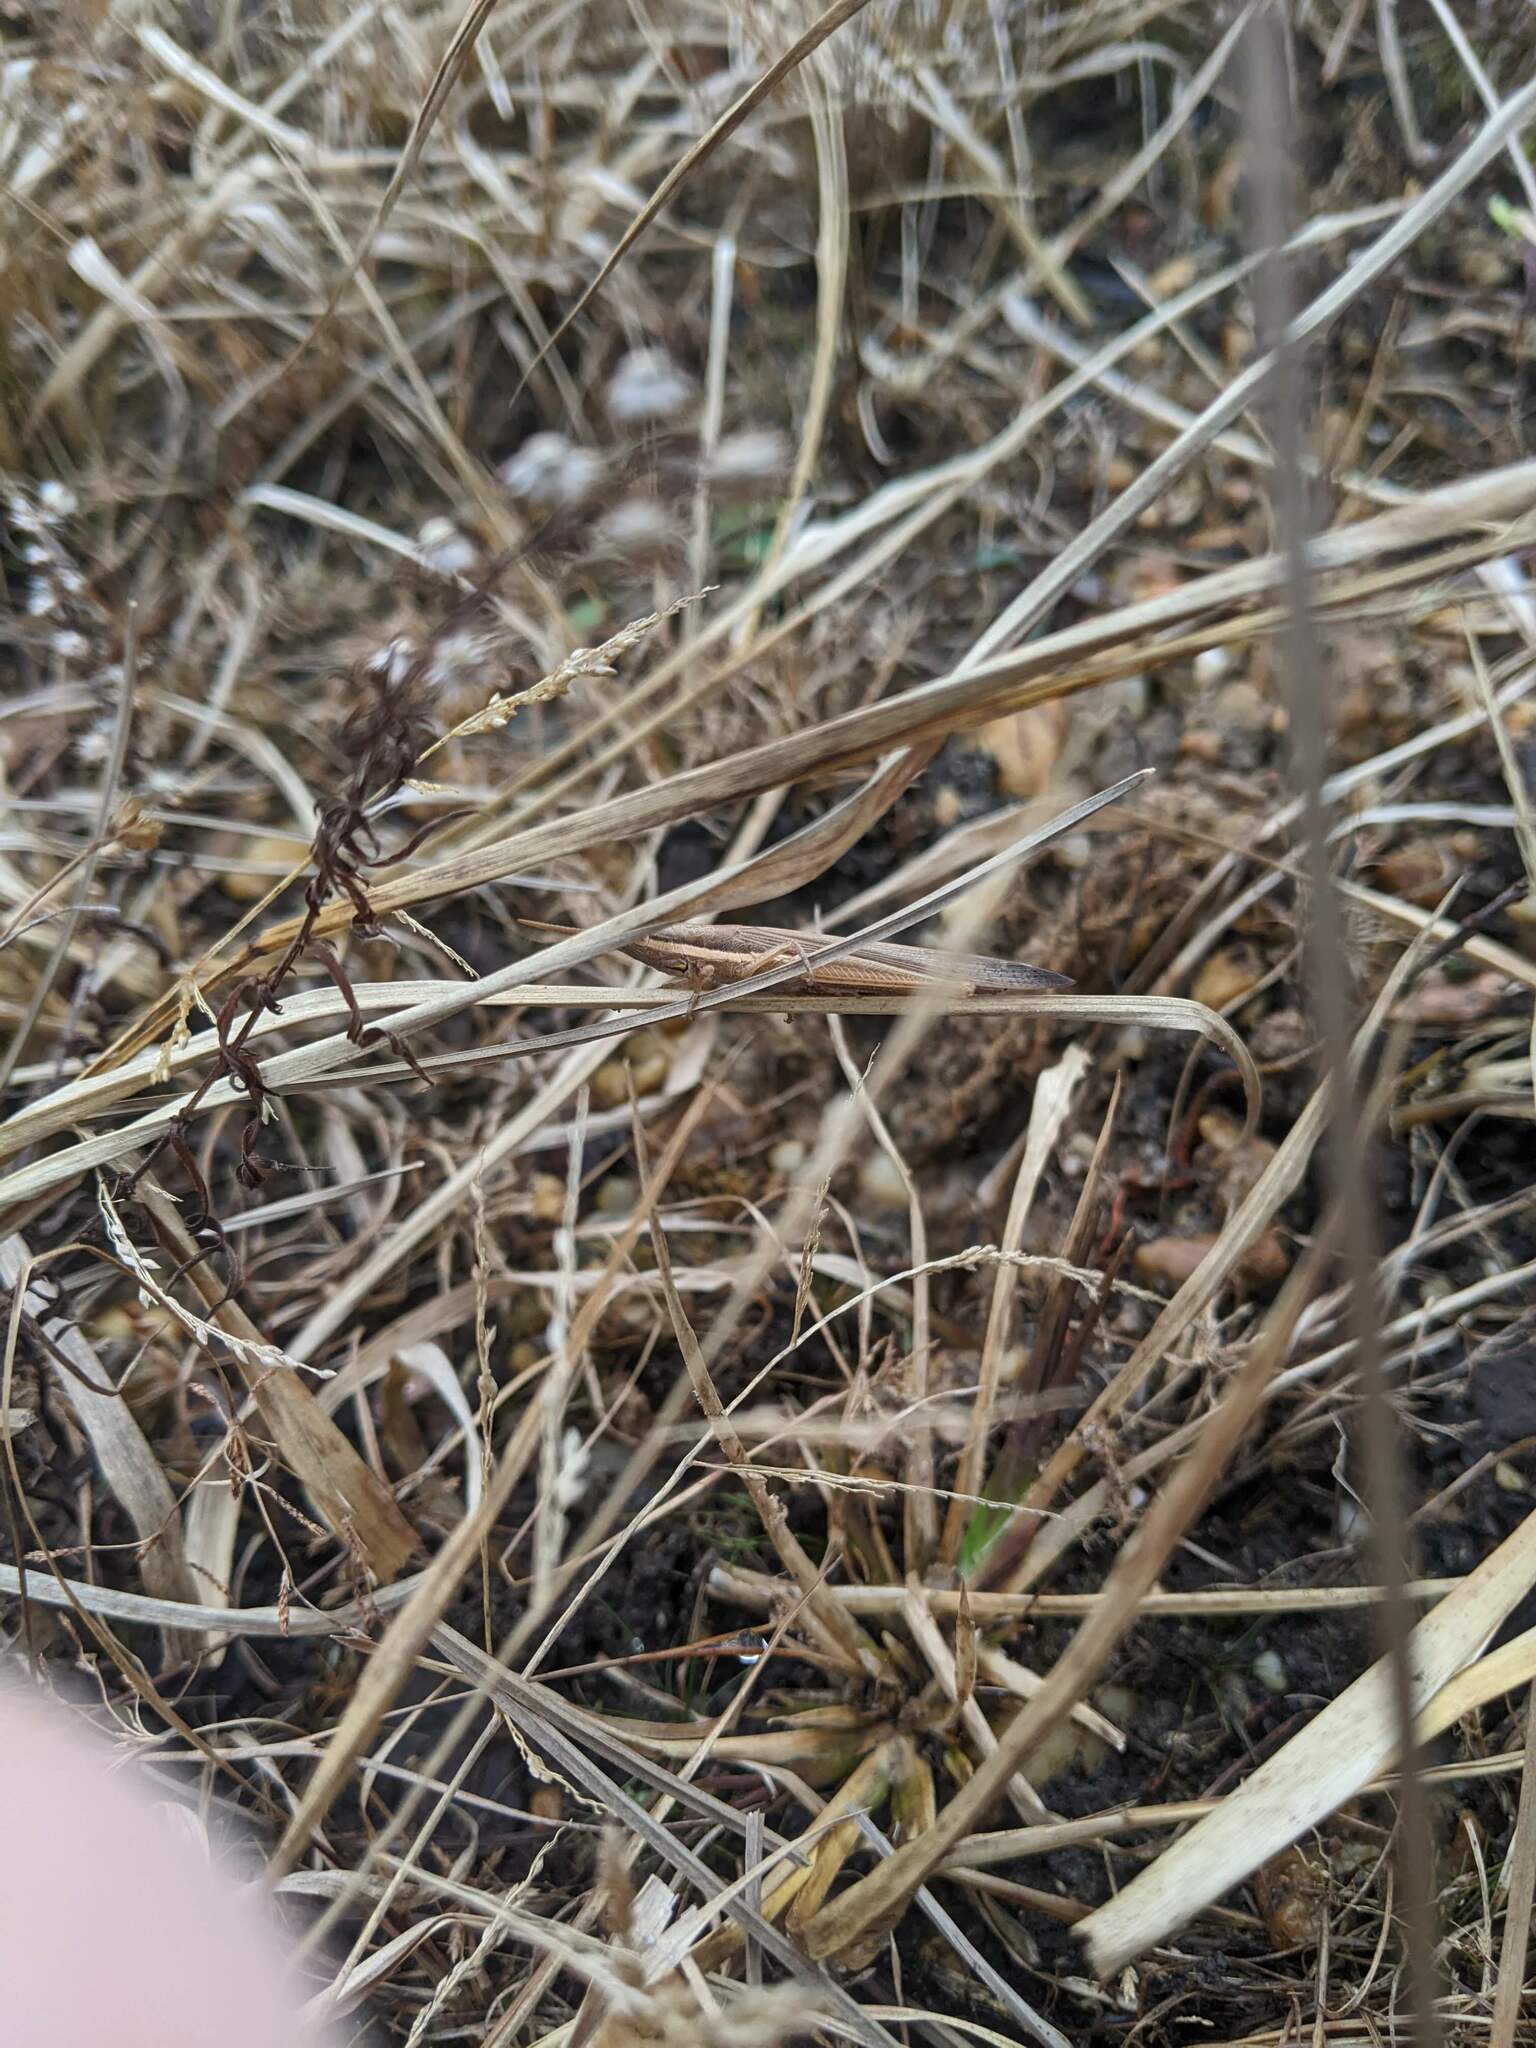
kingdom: Animalia
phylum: Arthropoda
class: Insecta
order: Orthoptera
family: Acrididae
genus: Leptysma
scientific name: Leptysma marginicollis
